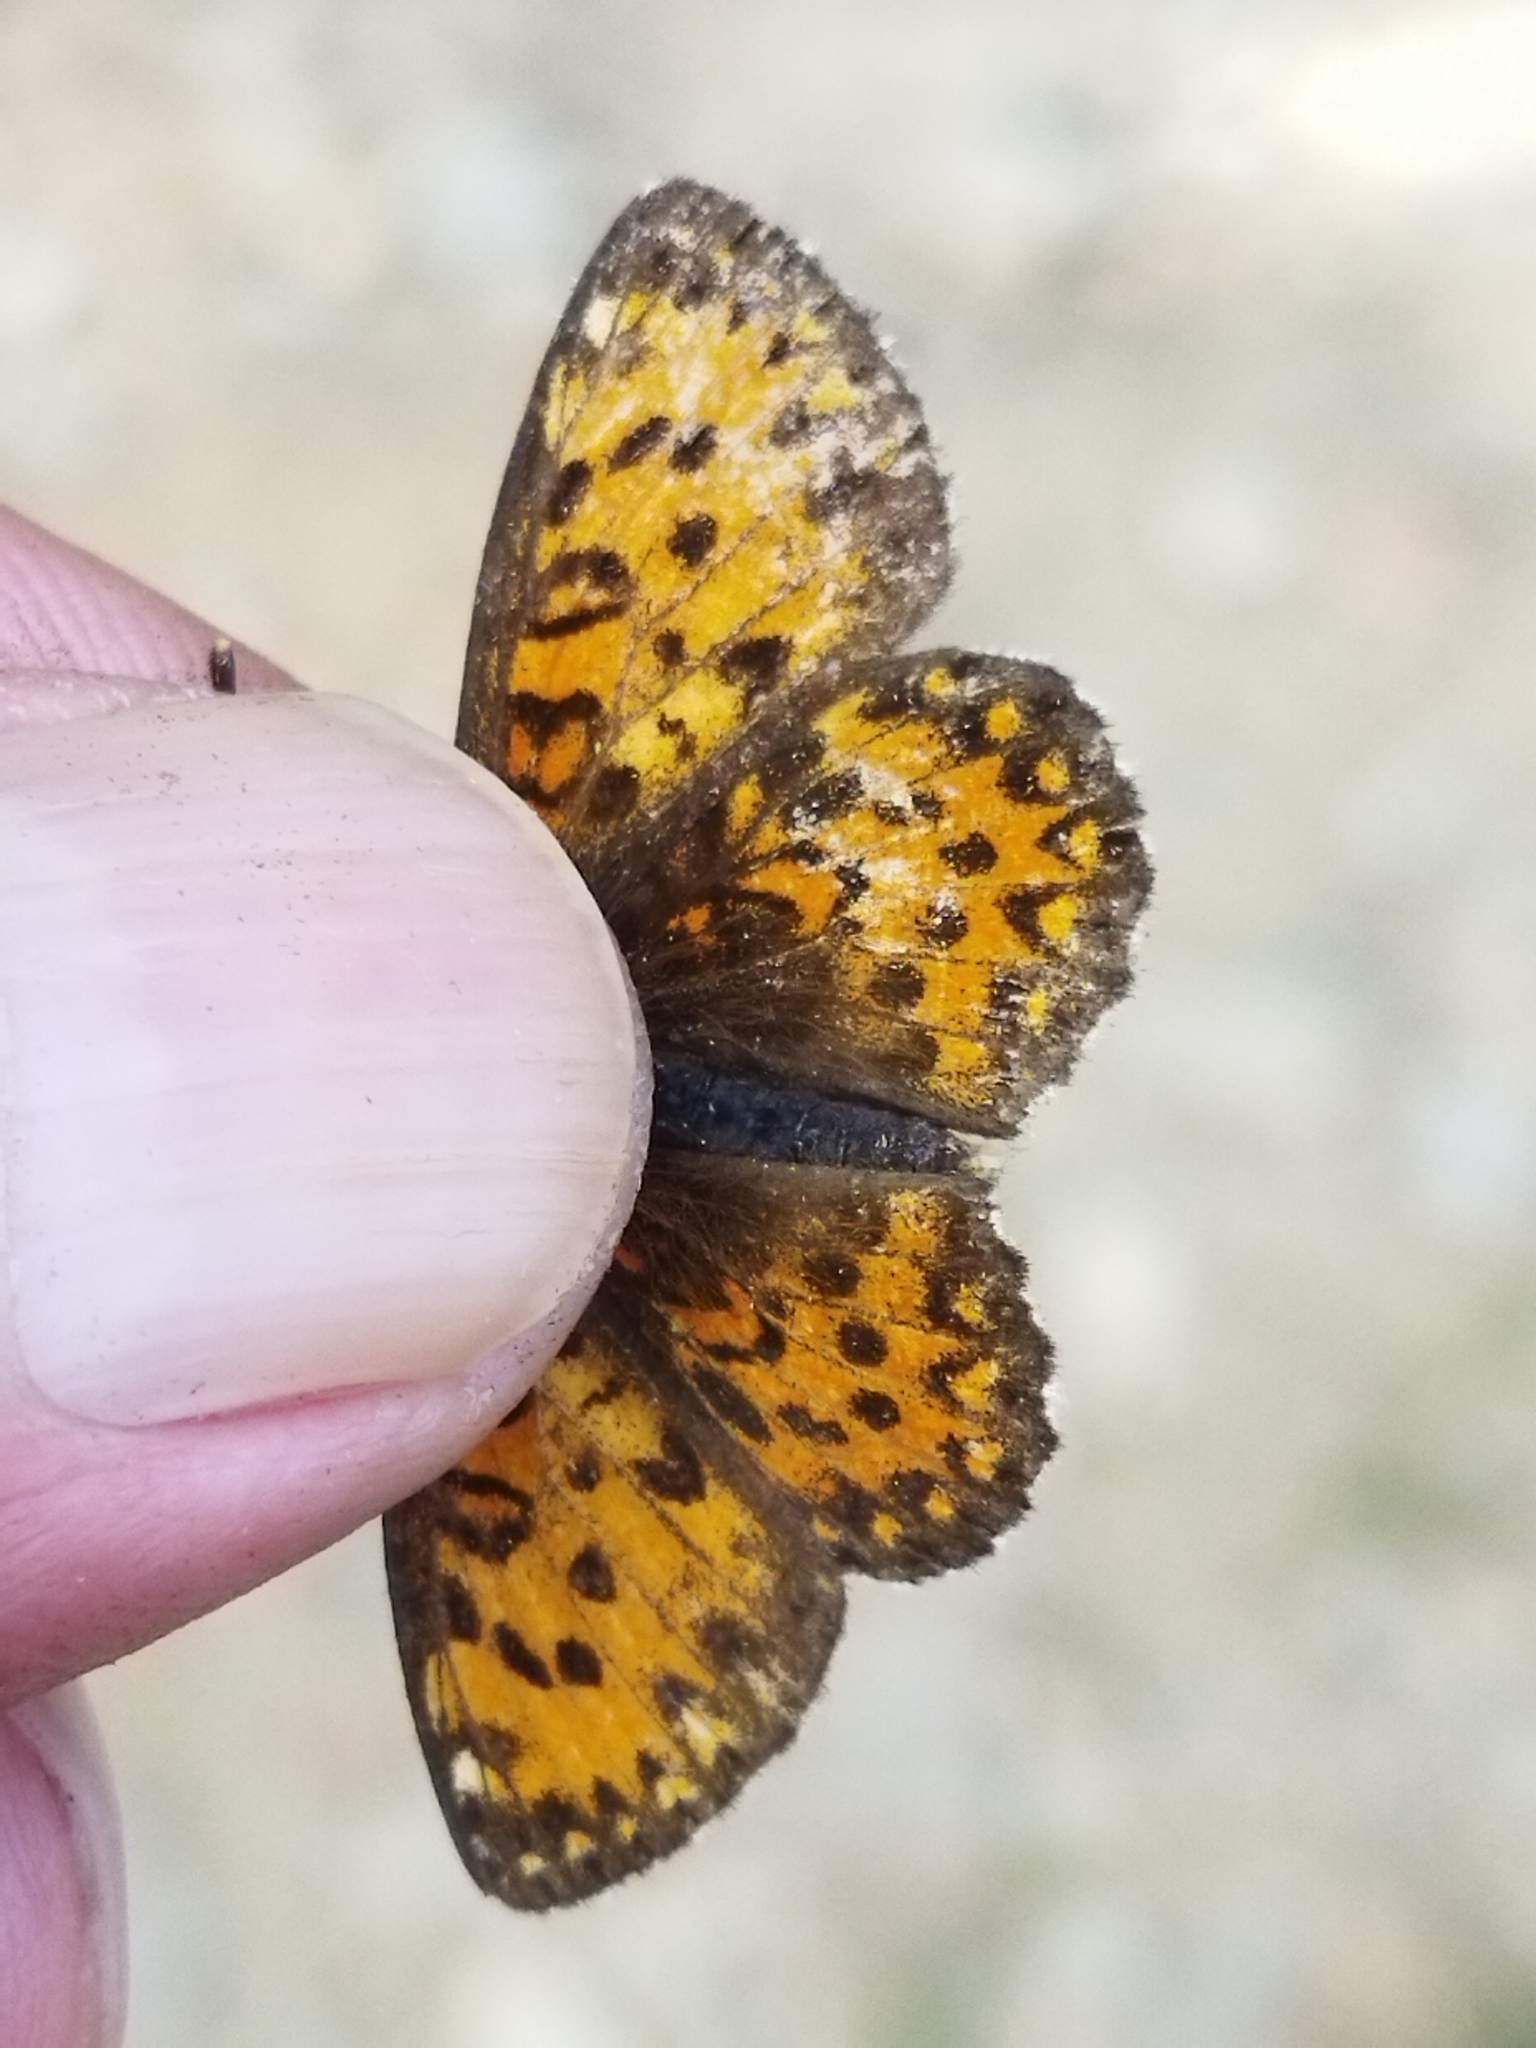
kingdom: Animalia
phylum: Arthropoda
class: Insecta
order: Lepidoptera
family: Nymphalidae
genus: Melitaea
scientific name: Melitaea trivia
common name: Lesser spotted fritillary
